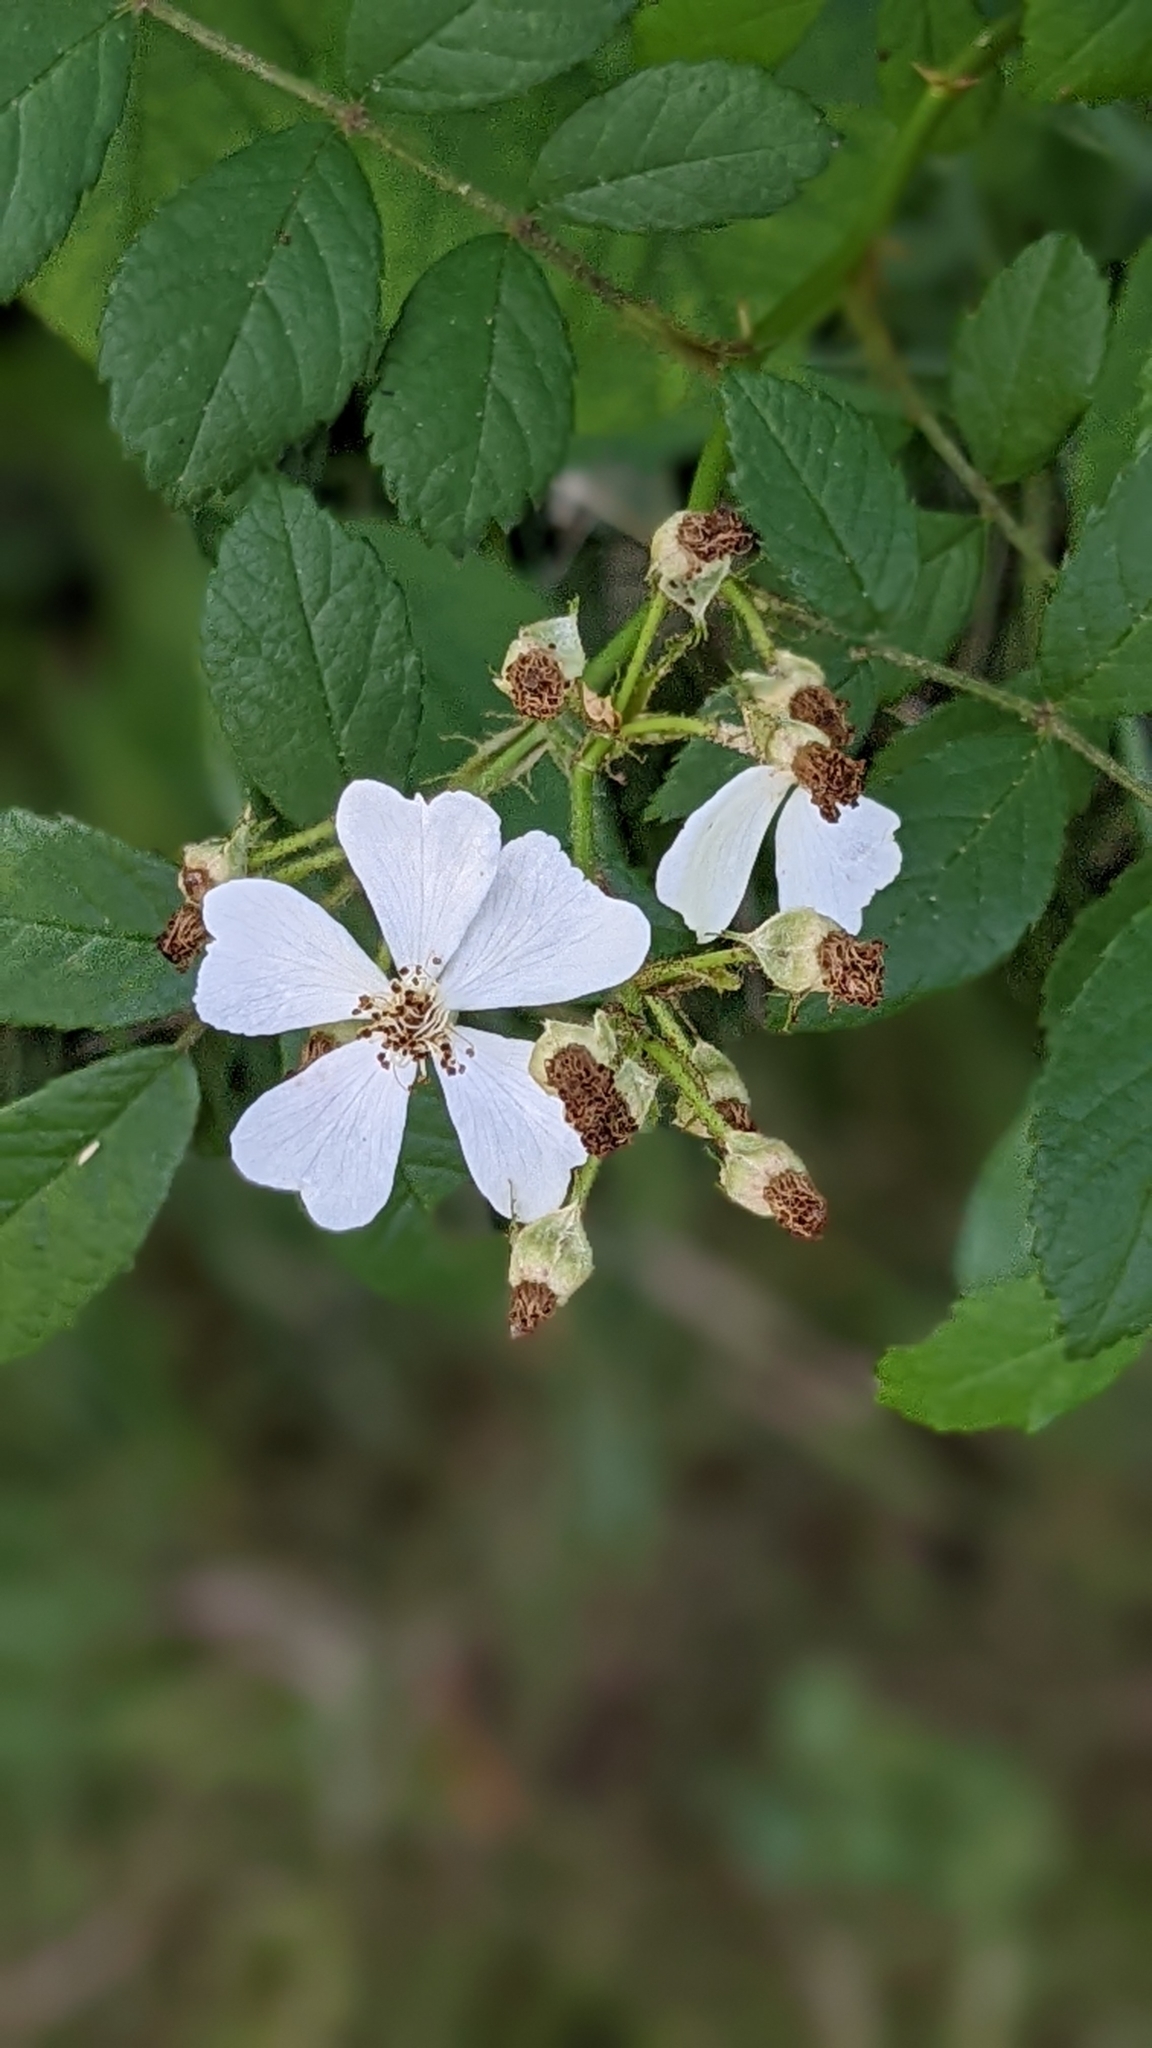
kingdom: Plantae
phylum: Tracheophyta
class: Magnoliopsida
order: Rosales
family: Rosaceae
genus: Rosa
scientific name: Rosa multiflora
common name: Multiflora rose
